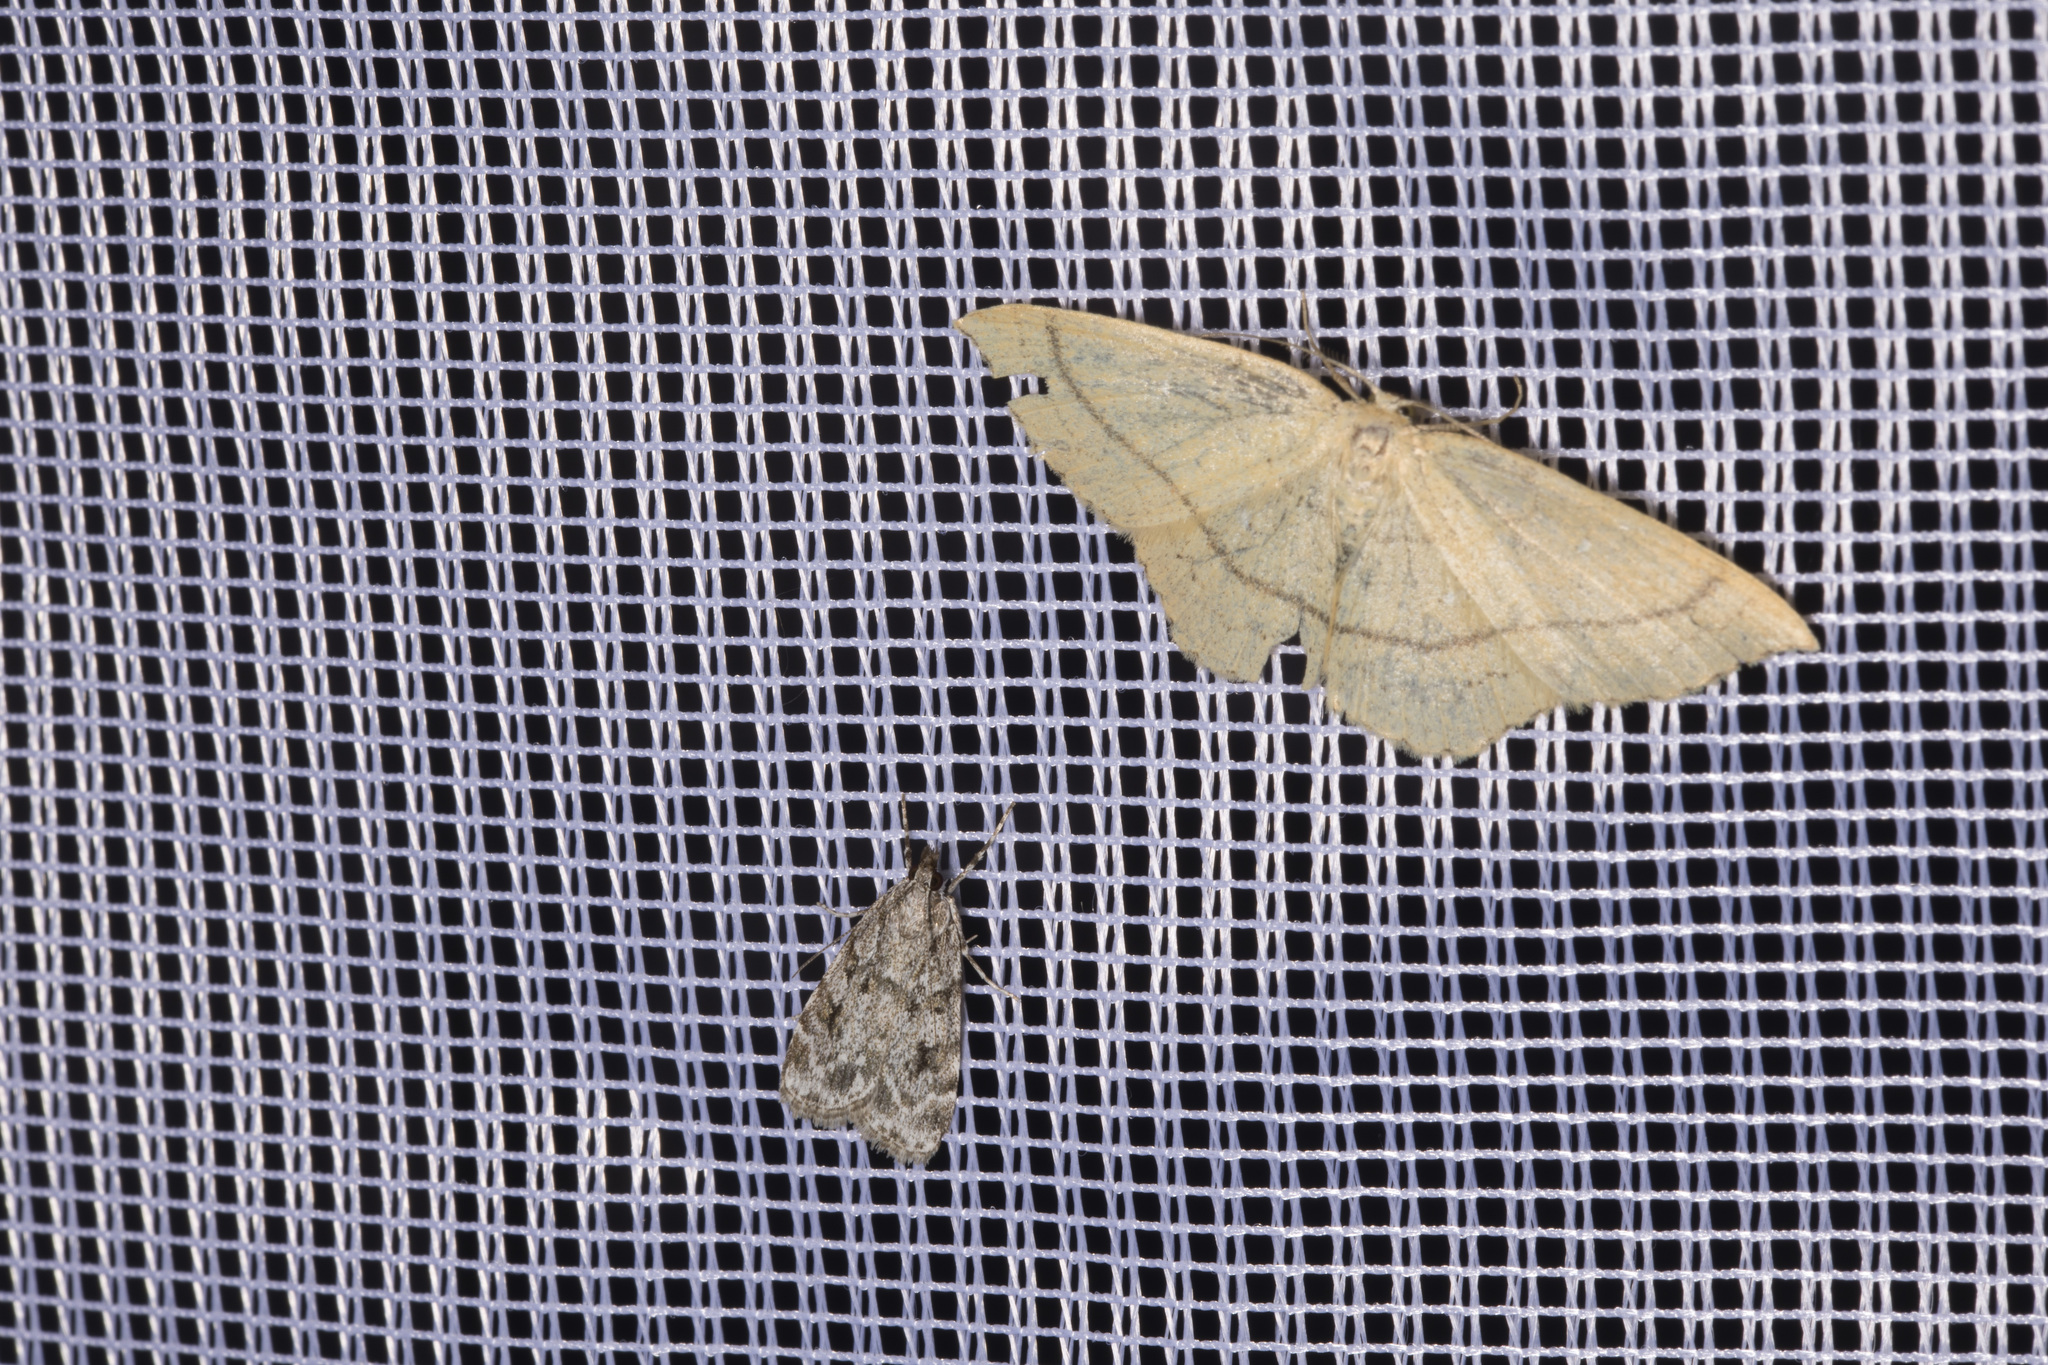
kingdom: Animalia
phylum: Arthropoda
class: Insecta
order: Lepidoptera
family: Geometridae
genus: Cyclophora
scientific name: Cyclophora linearia
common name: Clay triple-lines
